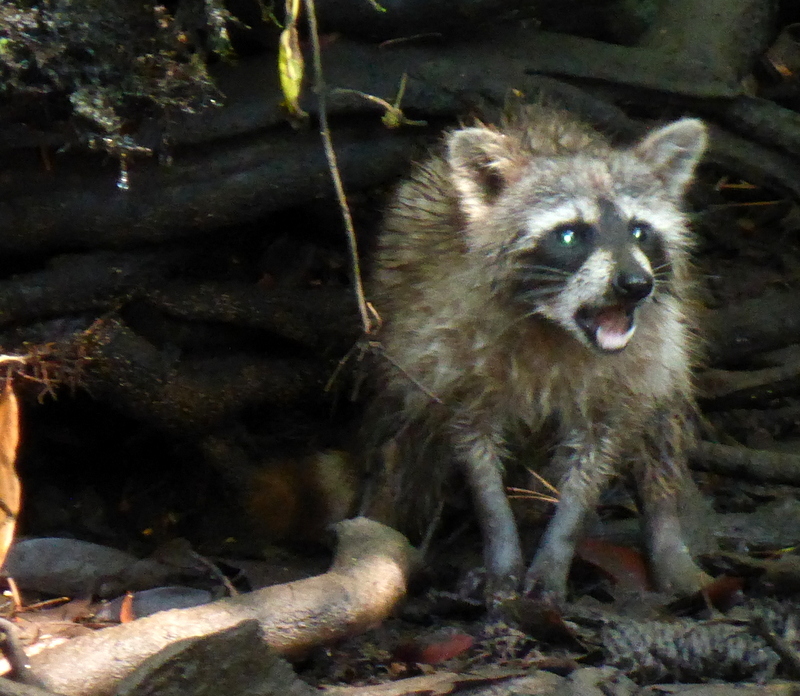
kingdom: Animalia
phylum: Chordata
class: Mammalia
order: Carnivora
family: Procyonidae
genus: Procyon
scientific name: Procyon lotor
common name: Raccoon
